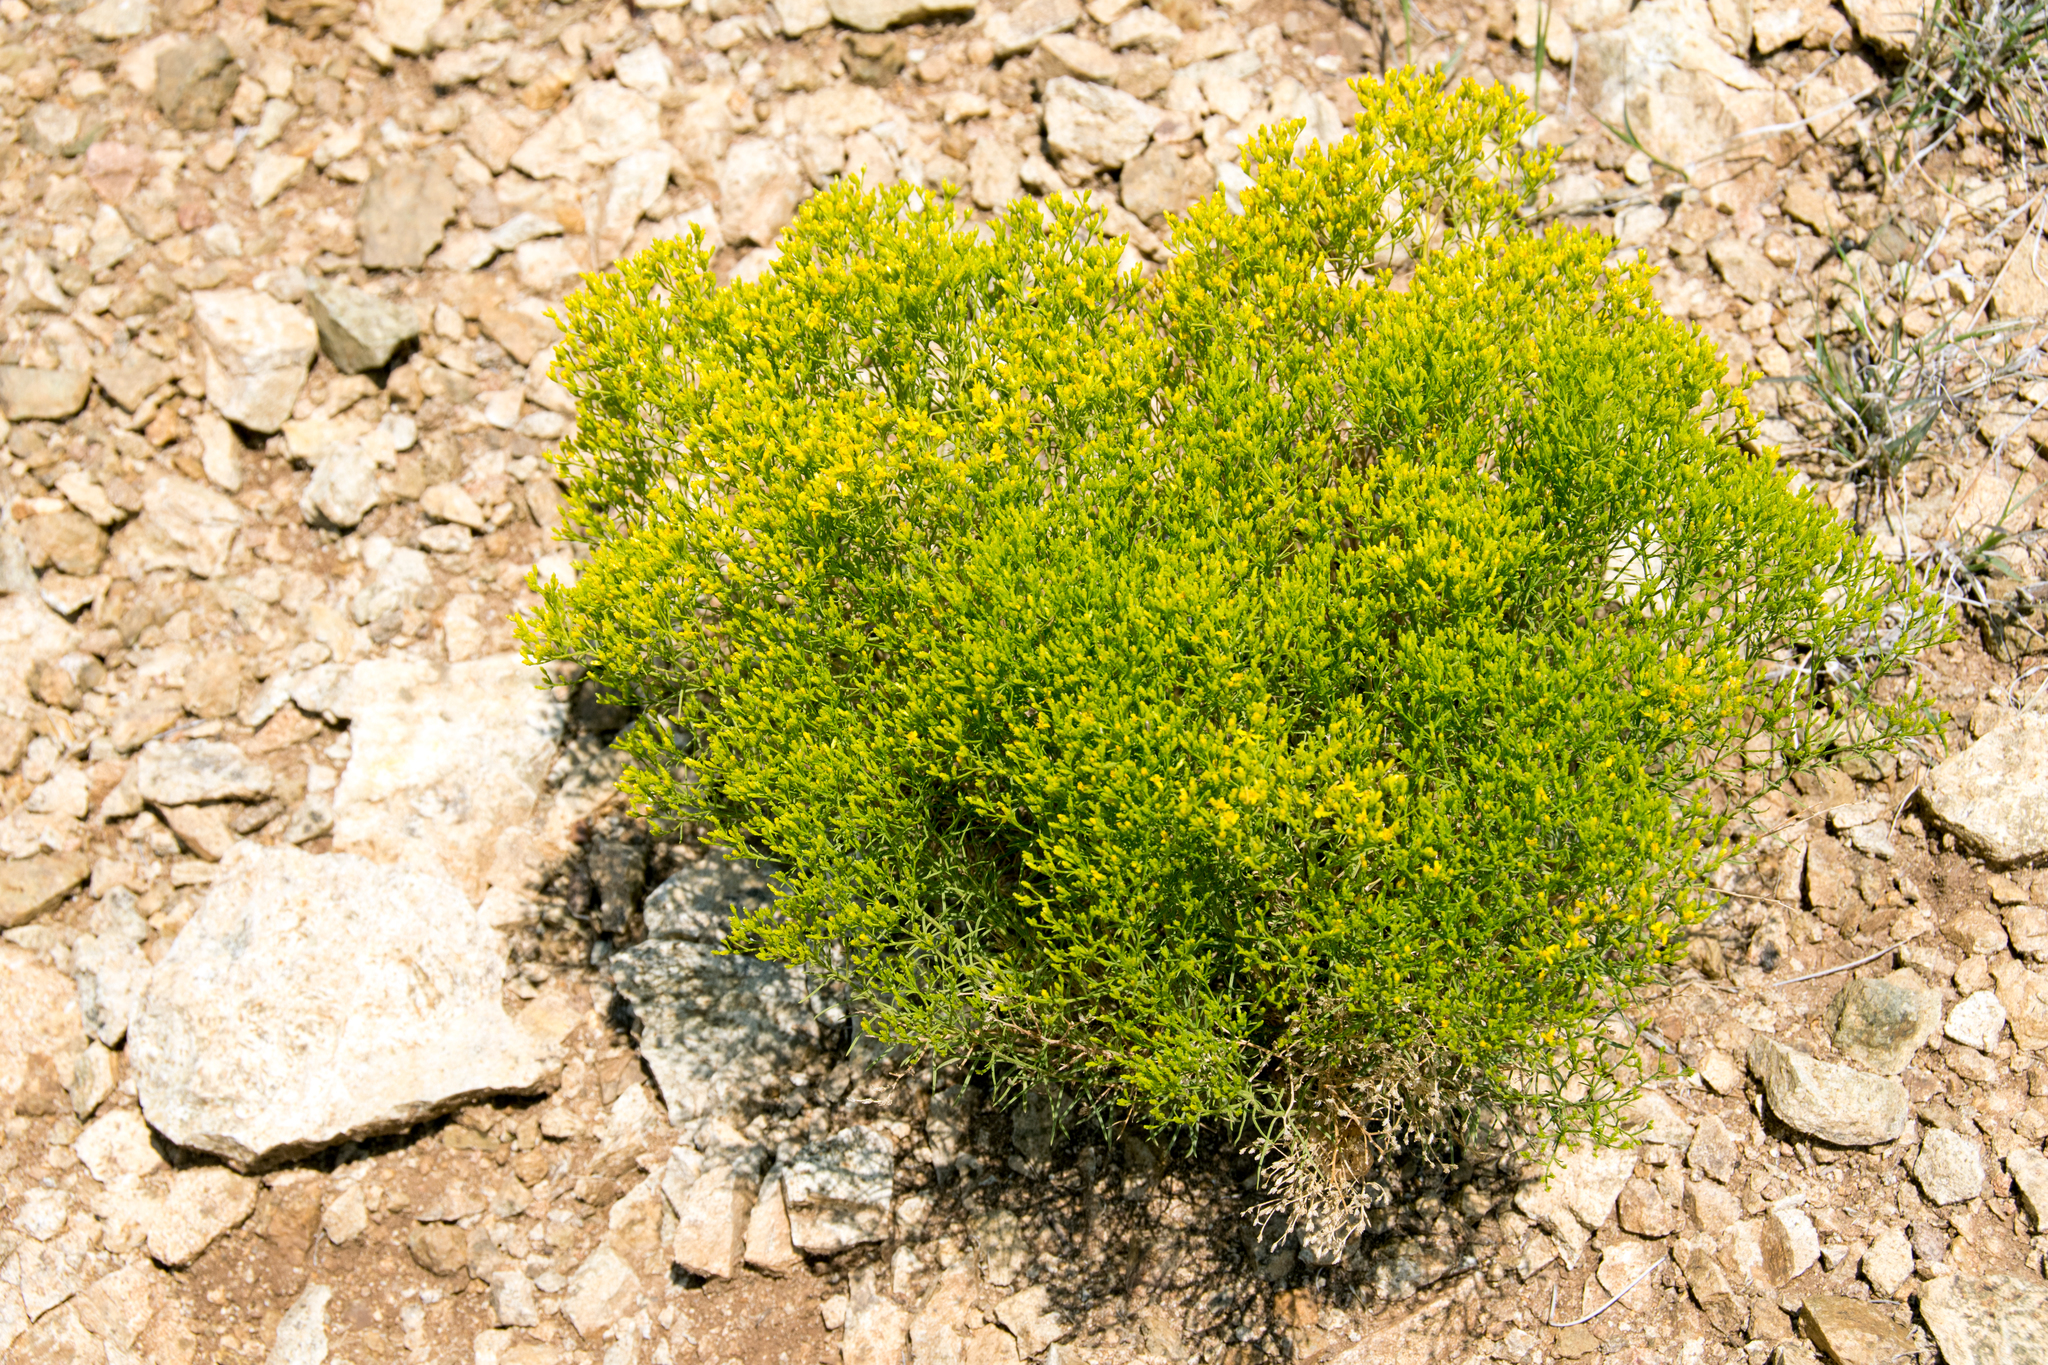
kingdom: Plantae
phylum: Tracheophyta
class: Magnoliopsida
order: Asterales
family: Asteraceae
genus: Gutierrezia
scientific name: Gutierrezia sarothrae
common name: Broom snakeweed
